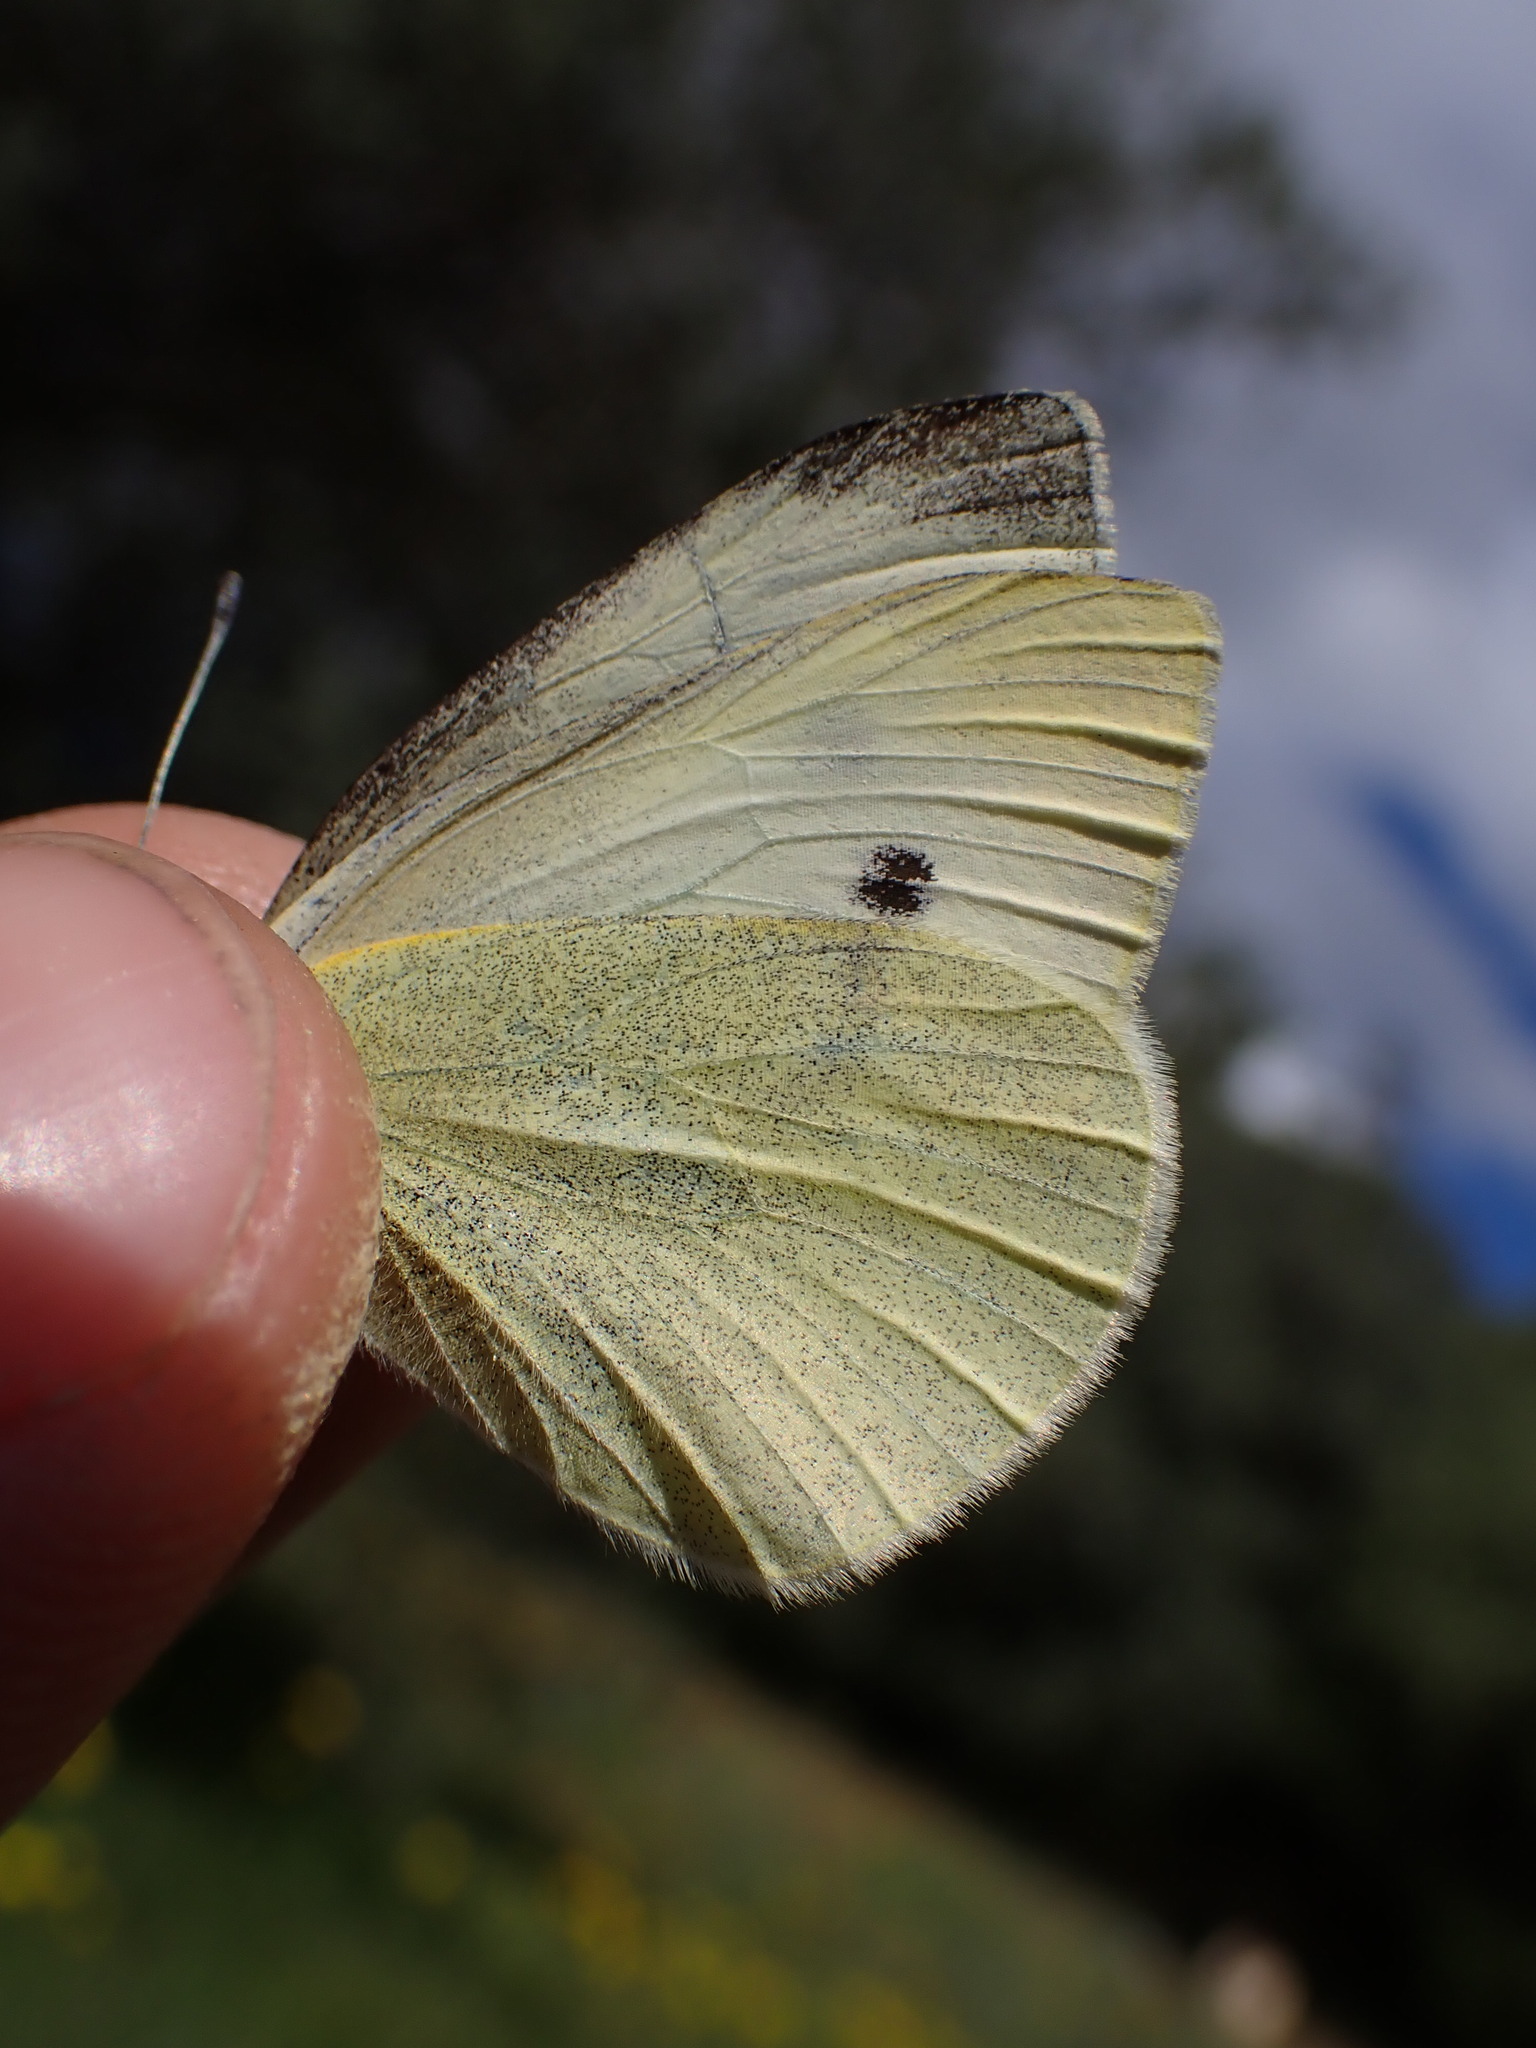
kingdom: Animalia
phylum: Arthropoda
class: Insecta
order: Lepidoptera
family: Pieridae
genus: Pieris
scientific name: Pieris rapae
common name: Small white
